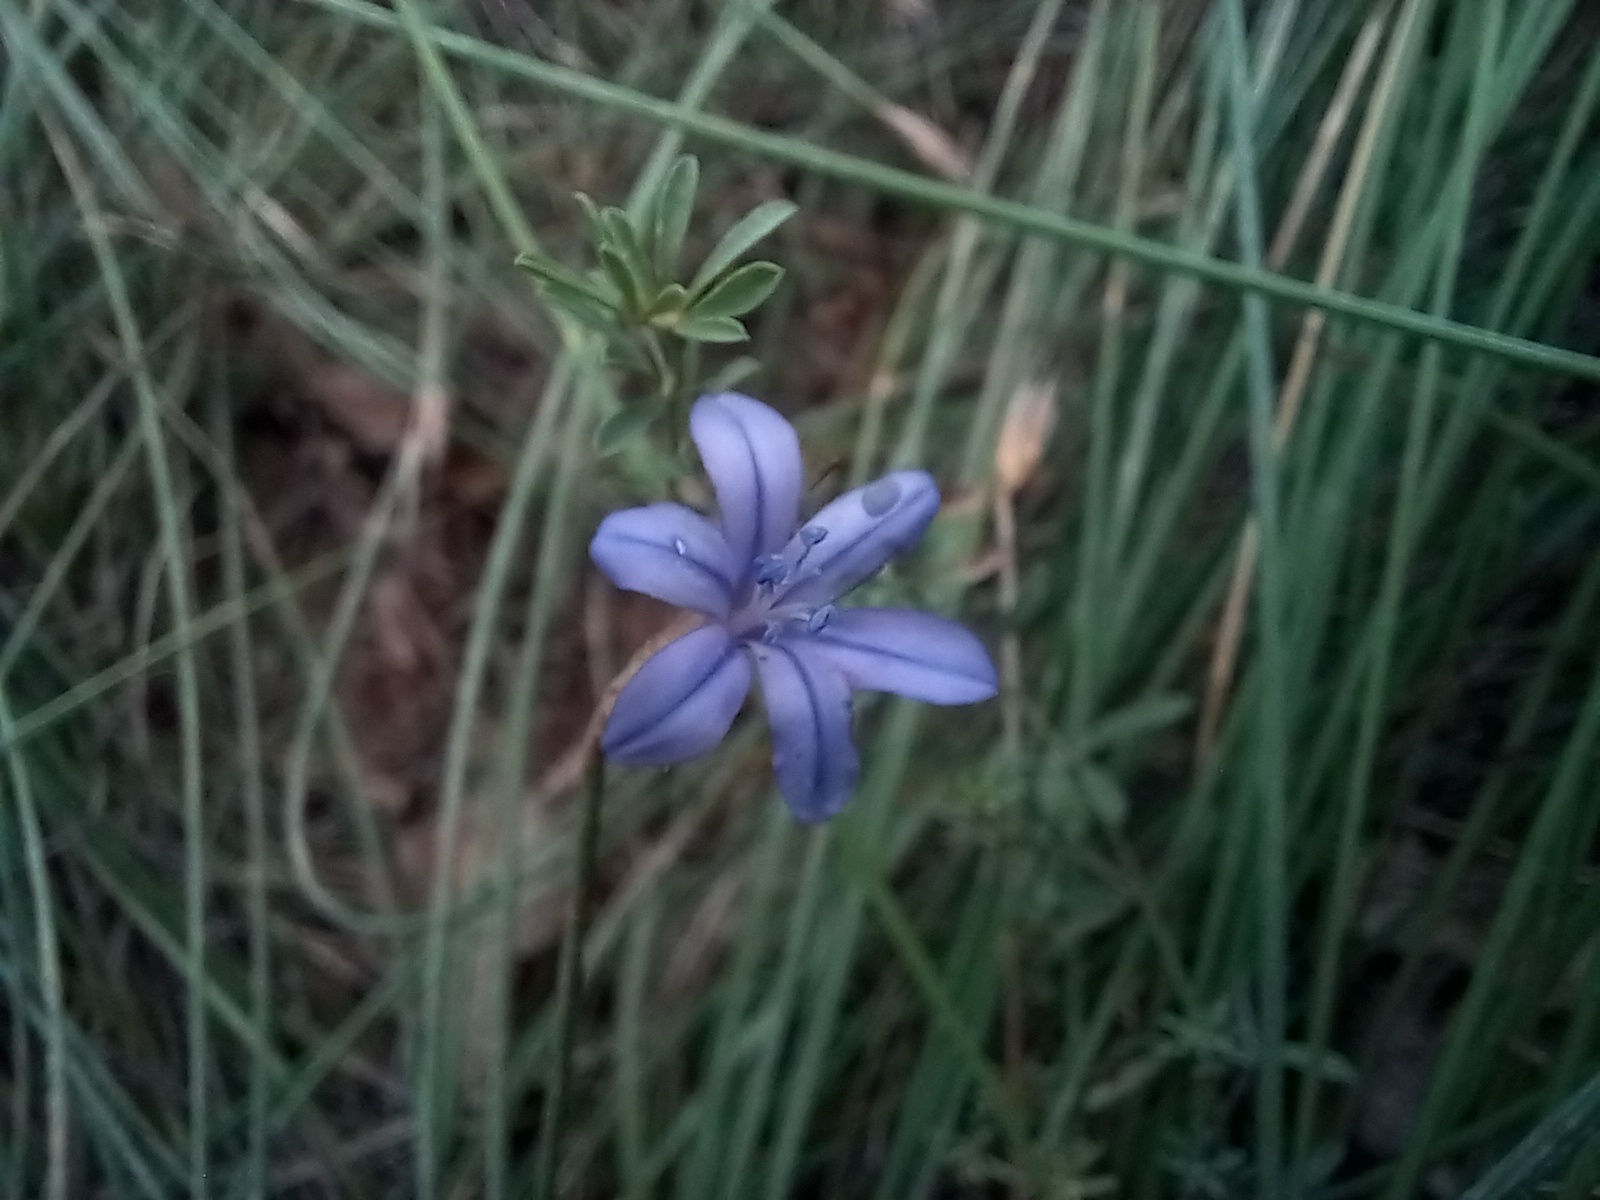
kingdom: Plantae
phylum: Tracheophyta
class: Liliopsida
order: Asparagales
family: Asparagaceae
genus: Aphyllanthes
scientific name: Aphyllanthes monspeliensis
